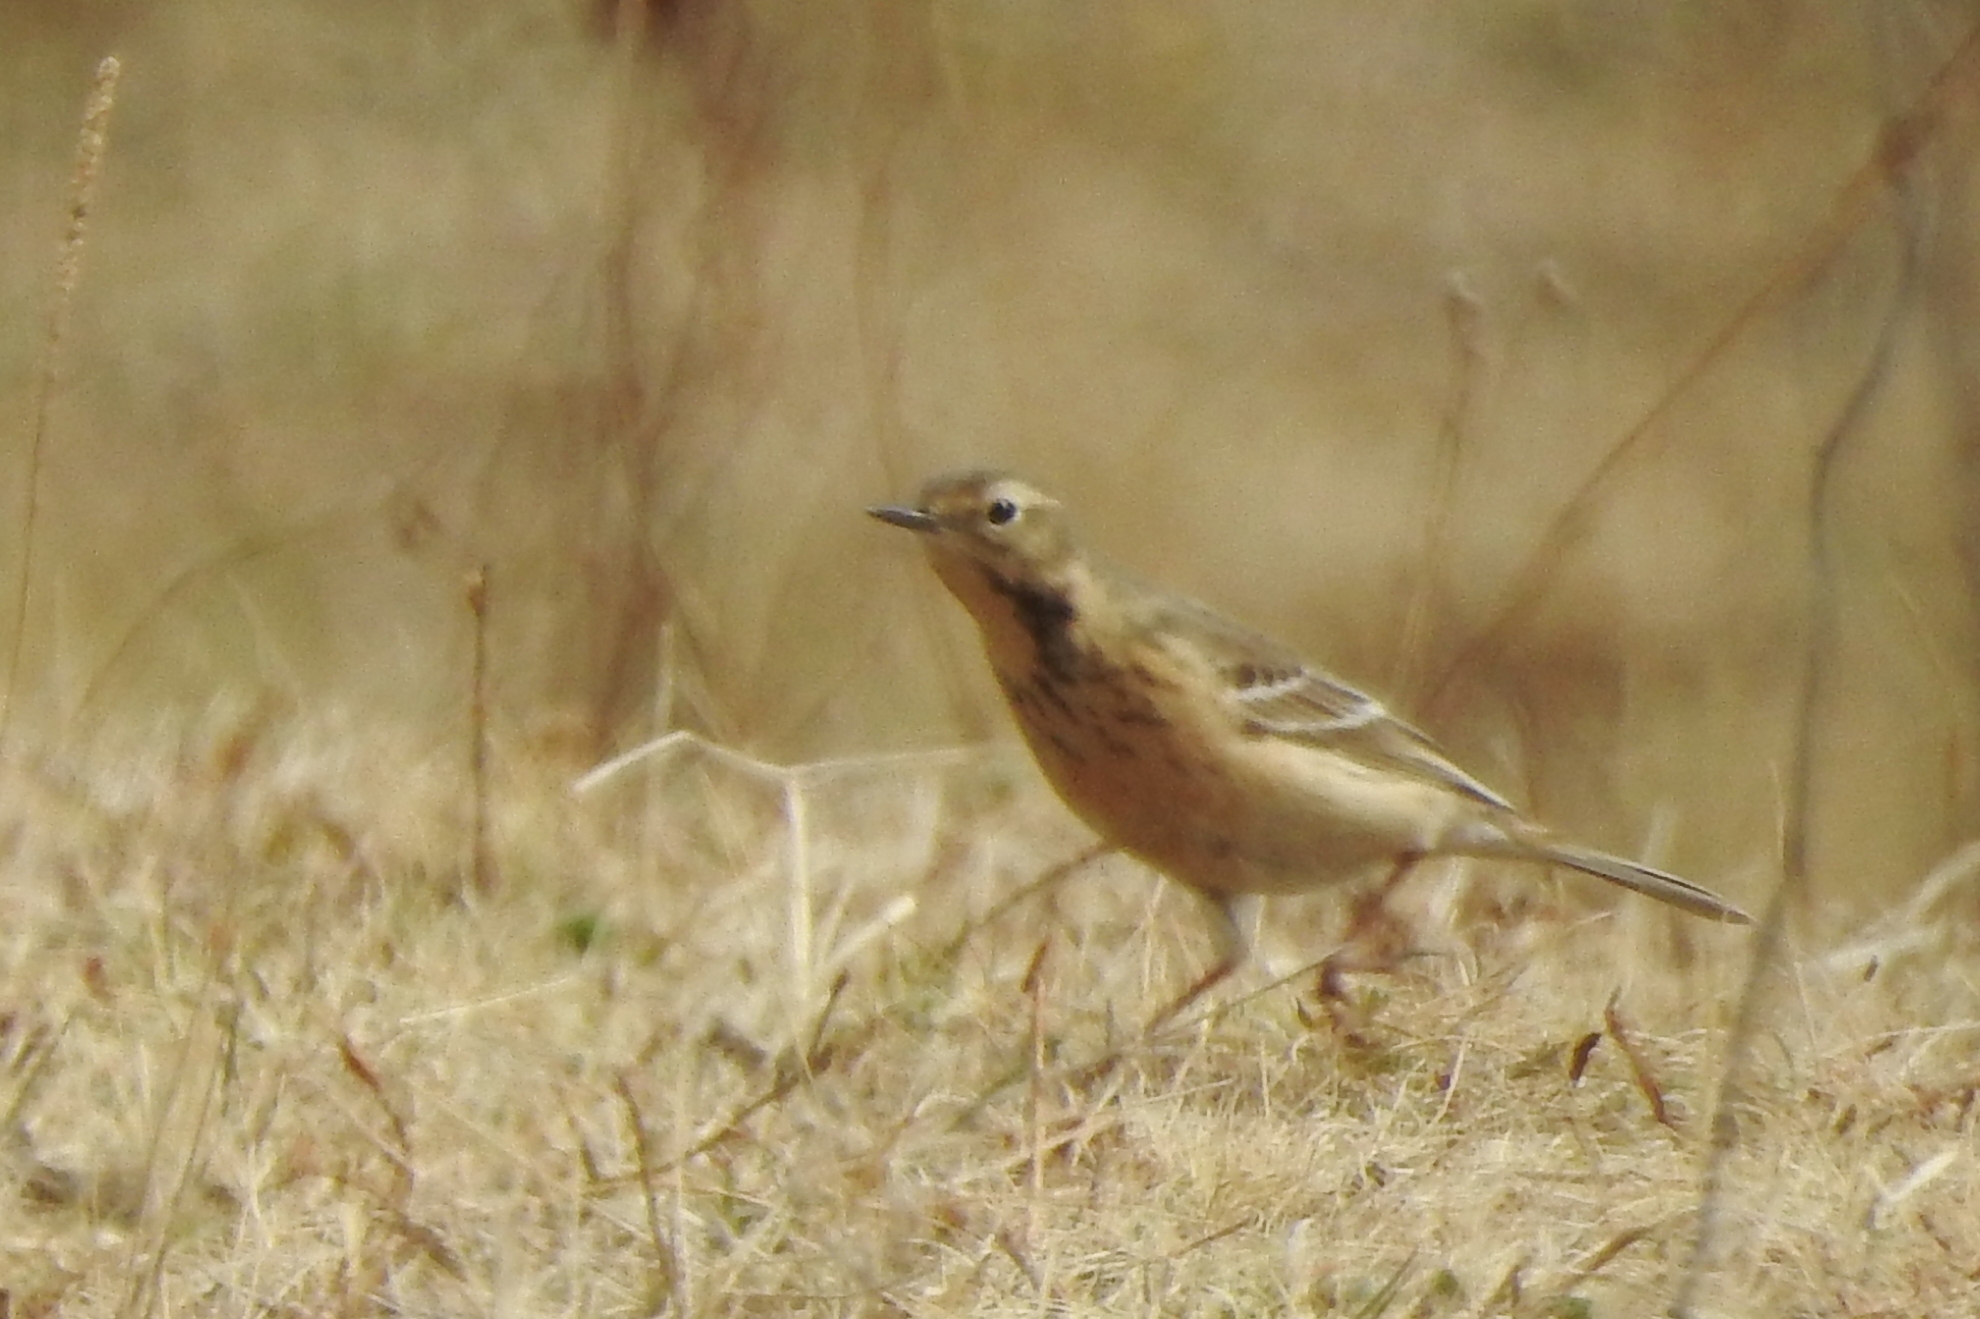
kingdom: Animalia
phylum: Chordata
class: Aves
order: Passeriformes
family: Motacillidae
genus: Anthus
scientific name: Anthus rubescens
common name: Buff-bellied pipit
